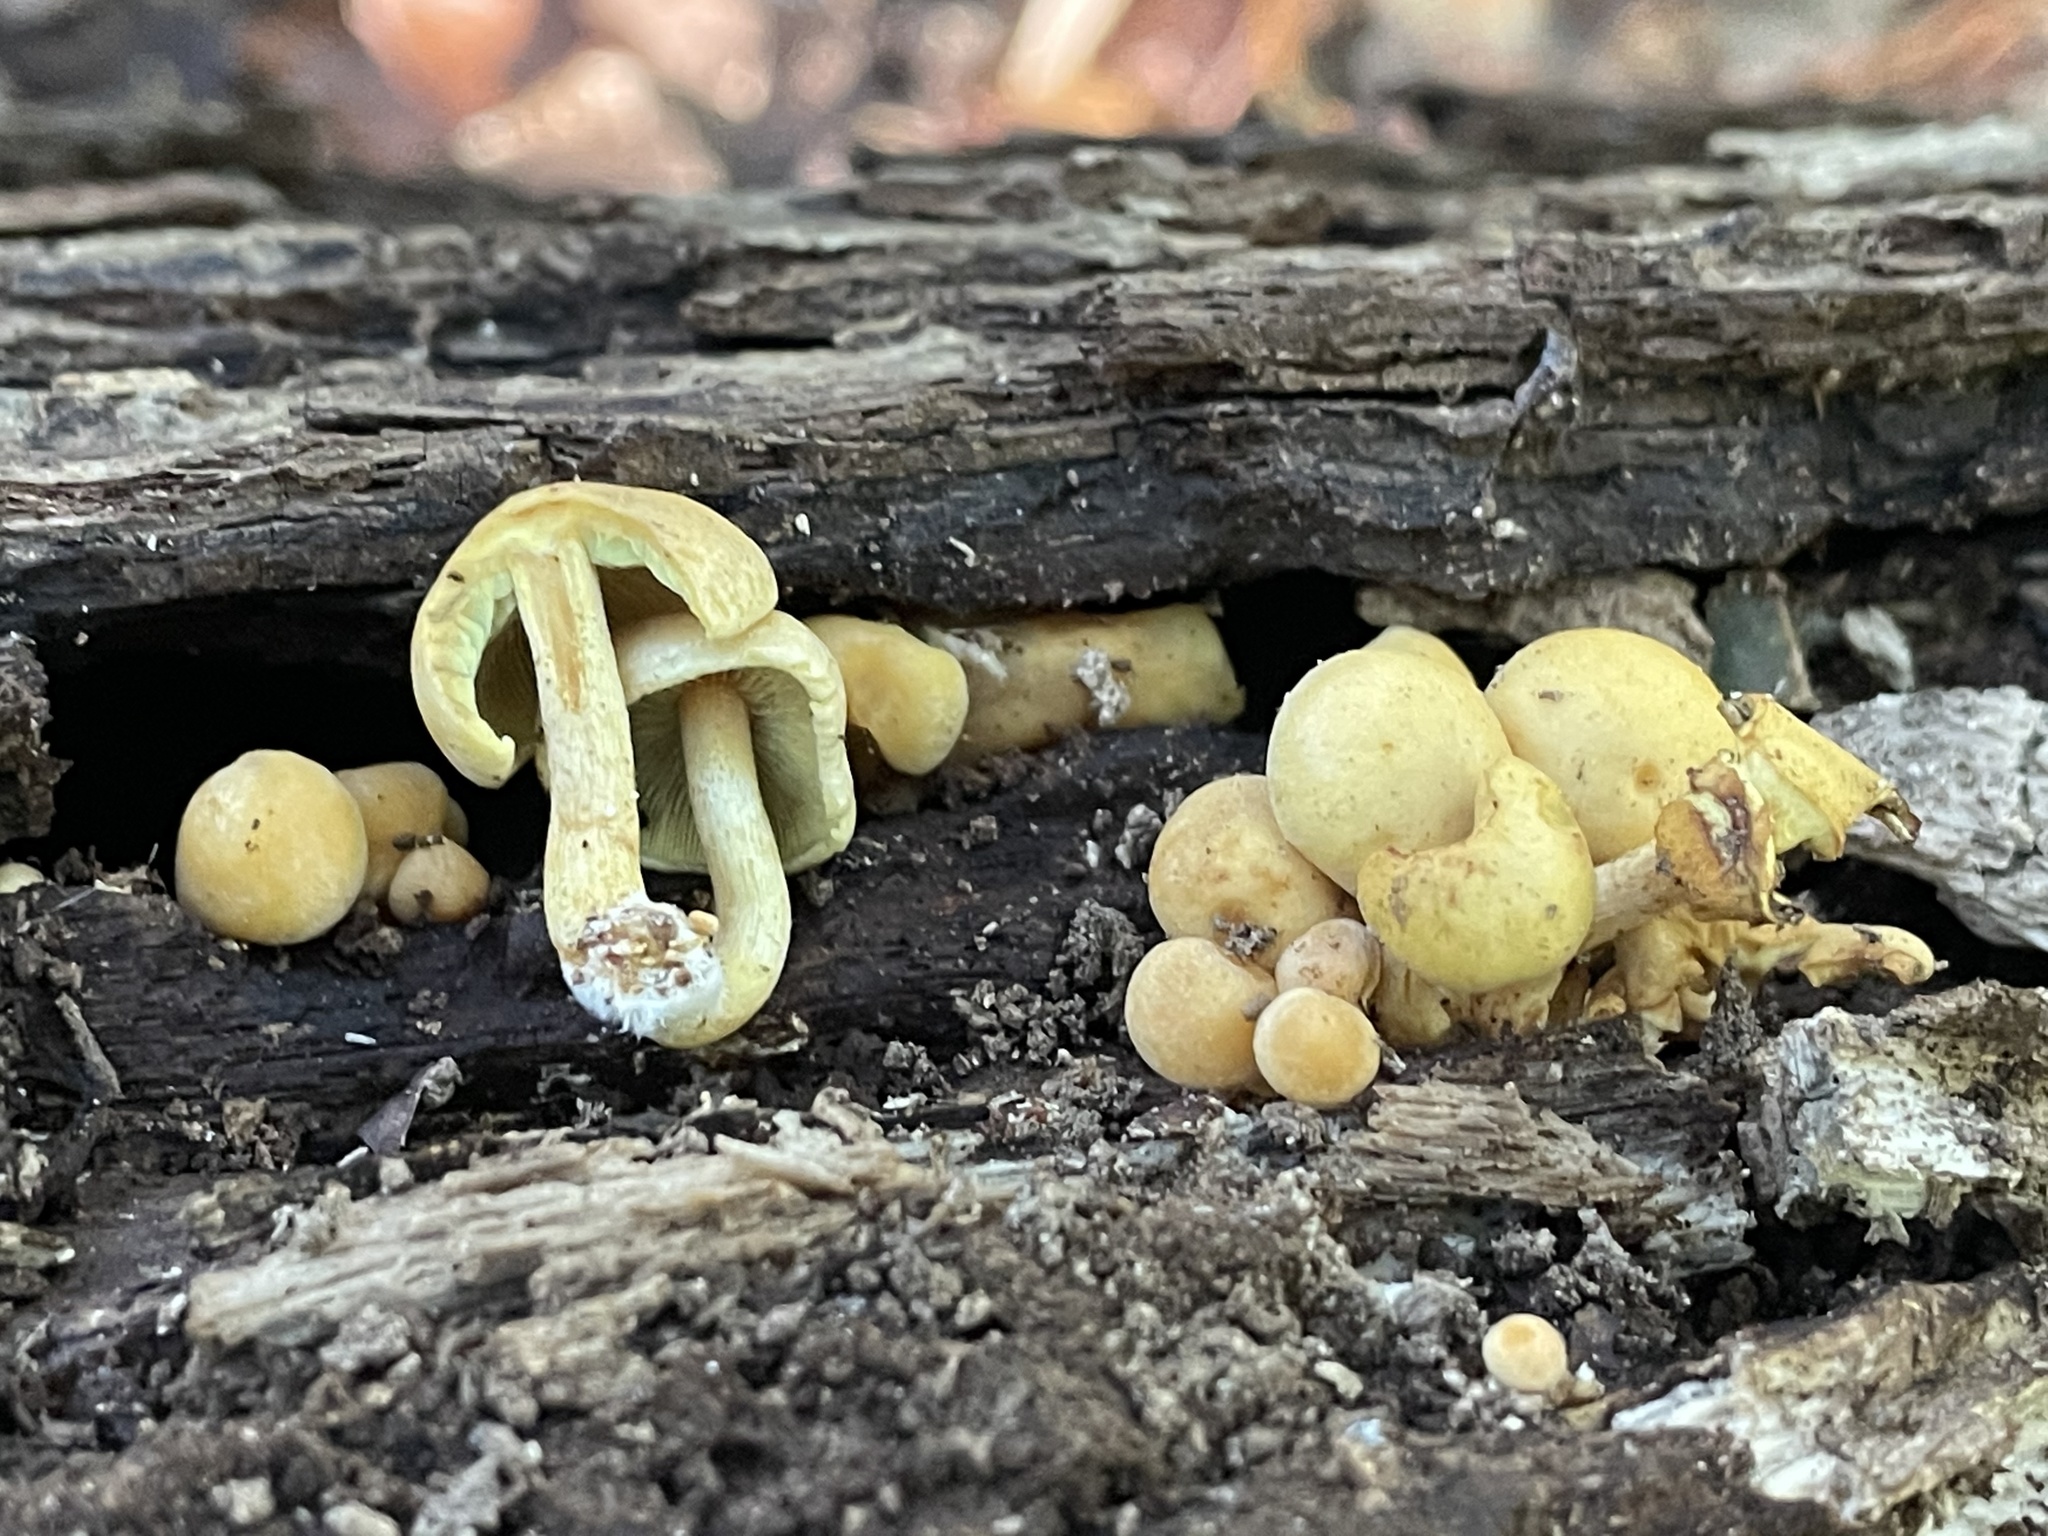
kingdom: Fungi
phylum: Basidiomycota
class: Agaricomycetes
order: Agaricales
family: Strophariaceae
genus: Hypholoma
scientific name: Hypholoma fasciculare
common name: Sulphur tuft
